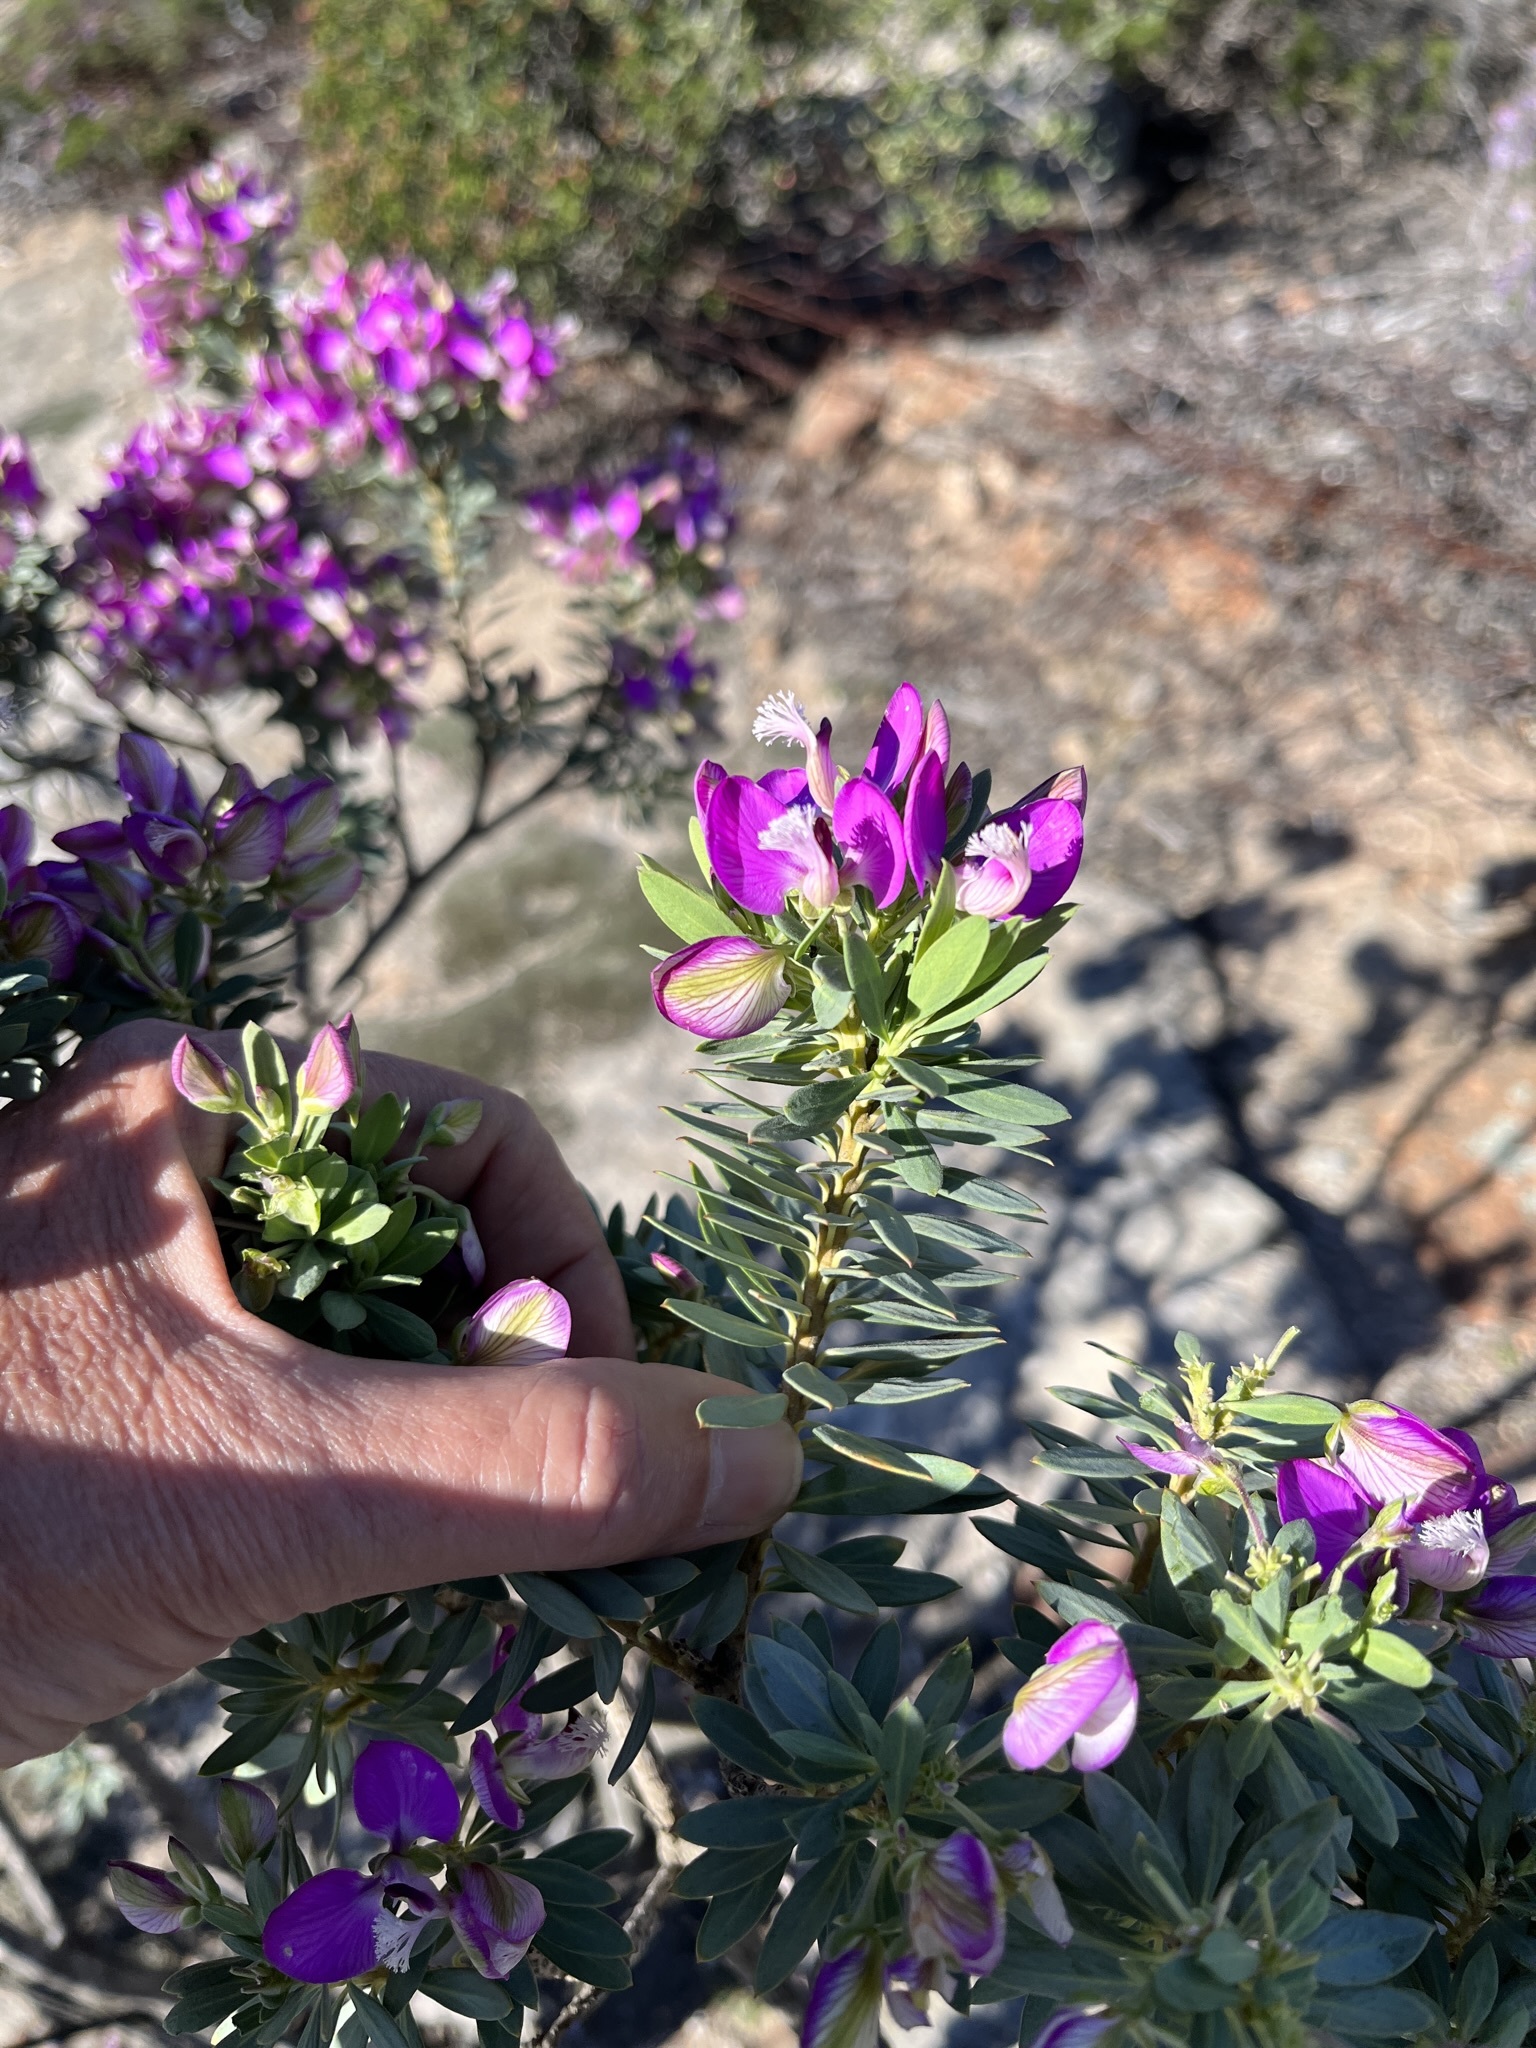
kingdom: Plantae
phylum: Tracheophyta
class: Magnoliopsida
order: Fabales
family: Polygalaceae
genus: Polygala
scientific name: Polygala myrtifolia
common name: Myrtle-leaf milkwort
